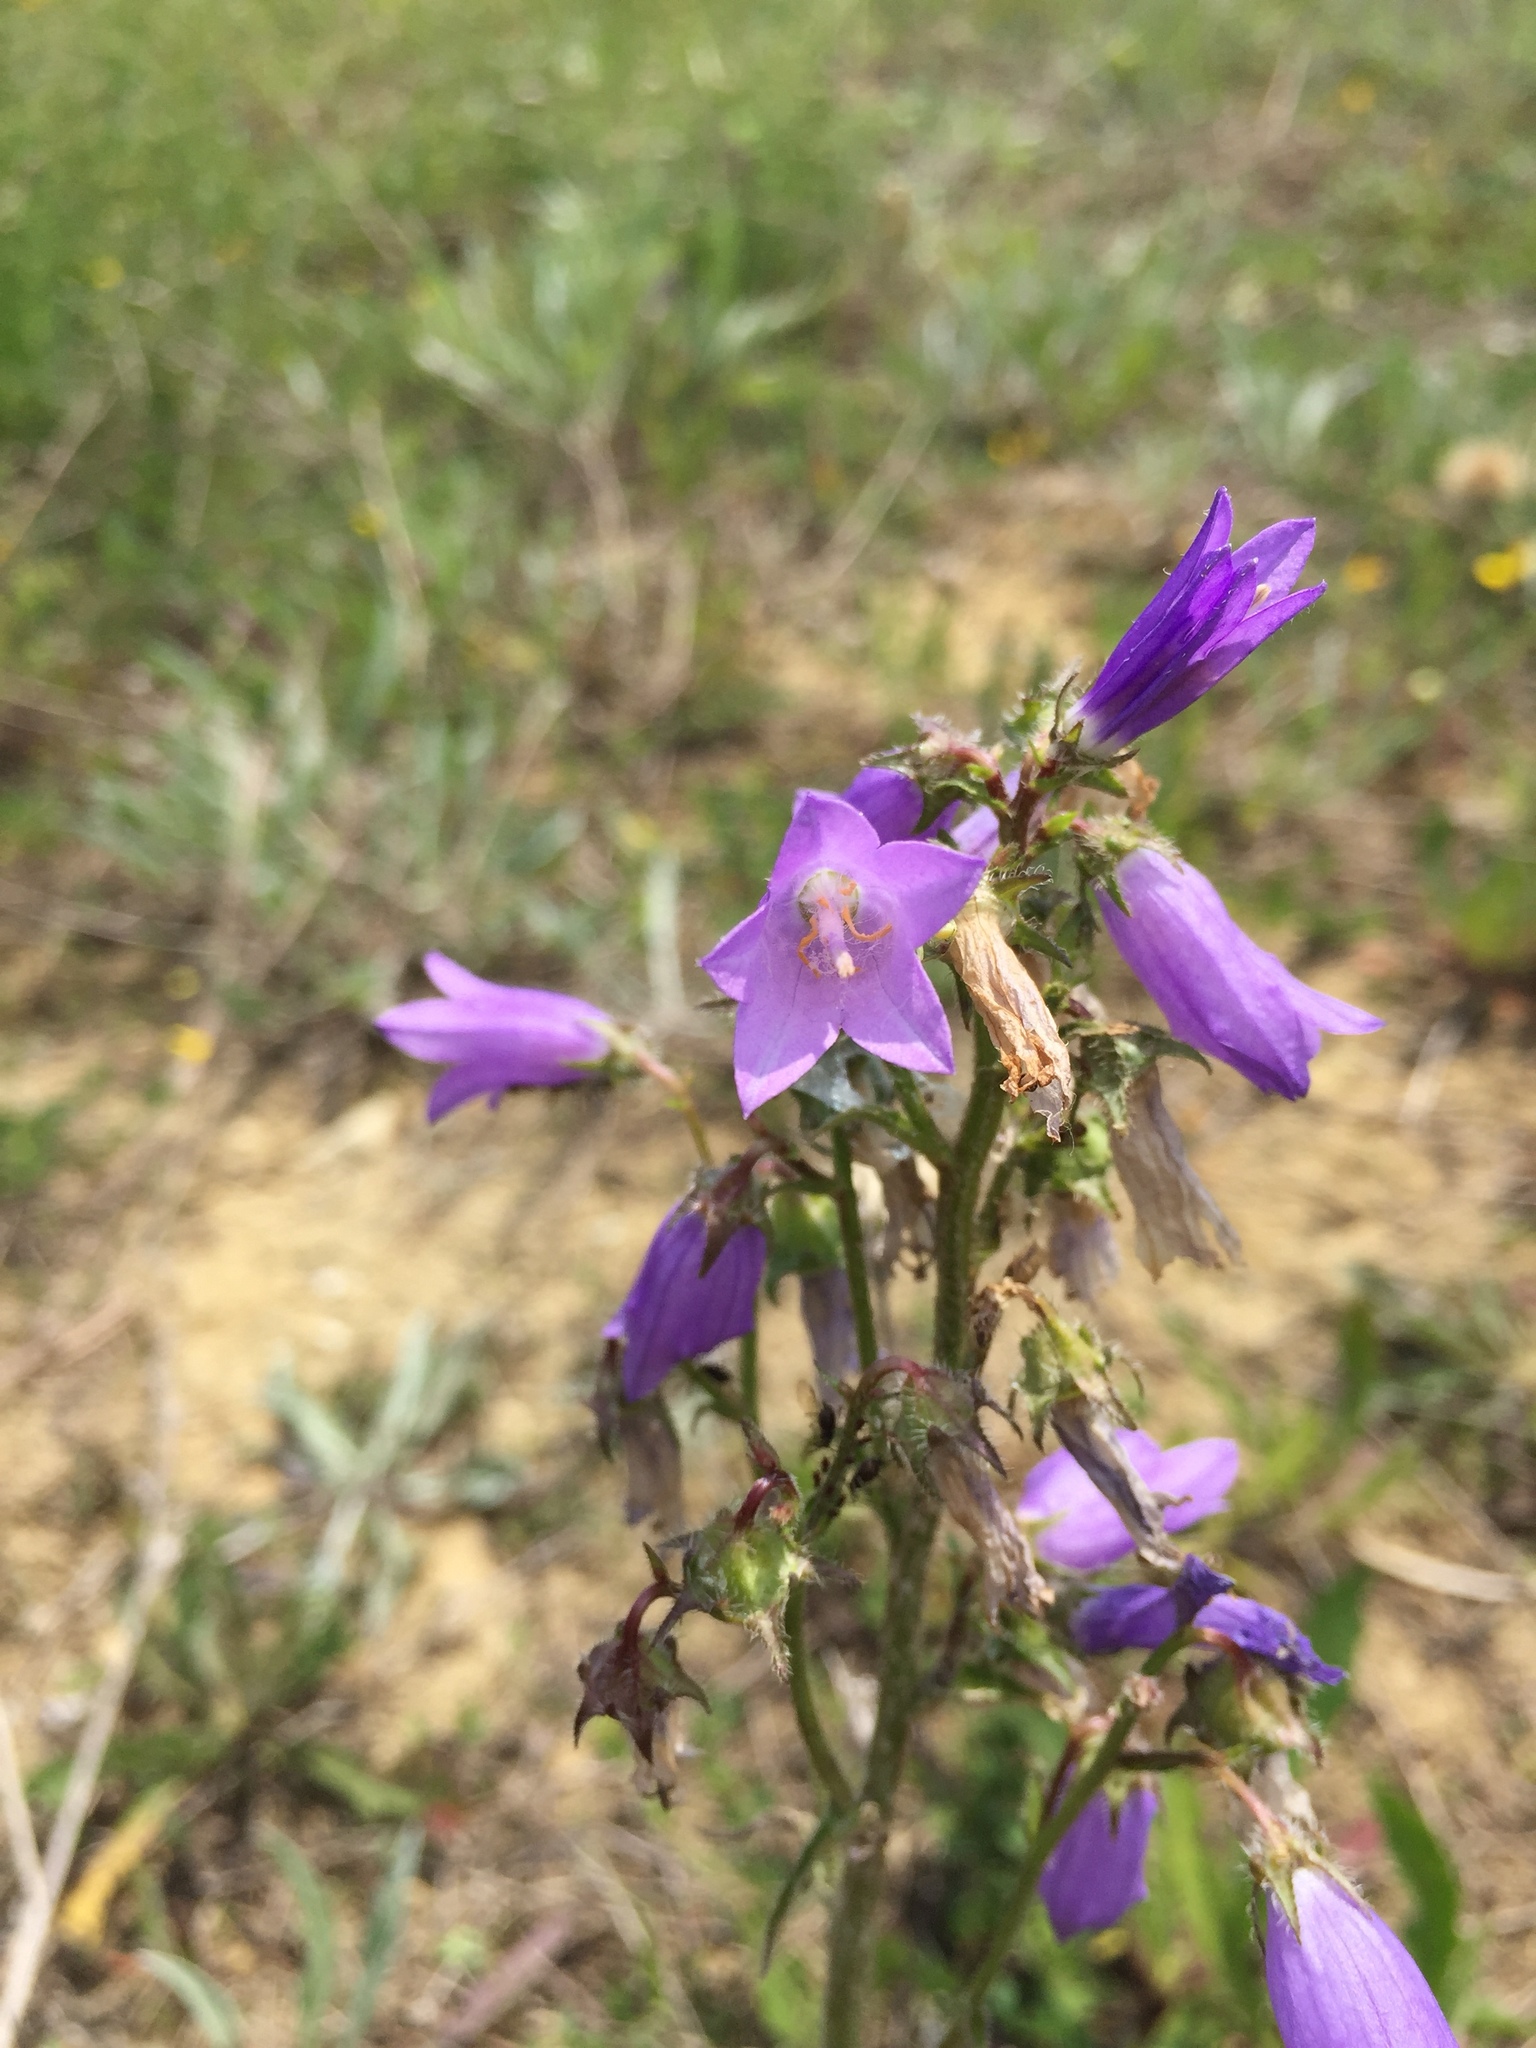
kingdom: Plantae
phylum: Tracheophyta
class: Magnoliopsida
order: Asterales
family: Campanulaceae
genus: Campanula
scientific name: Campanula sibirica
